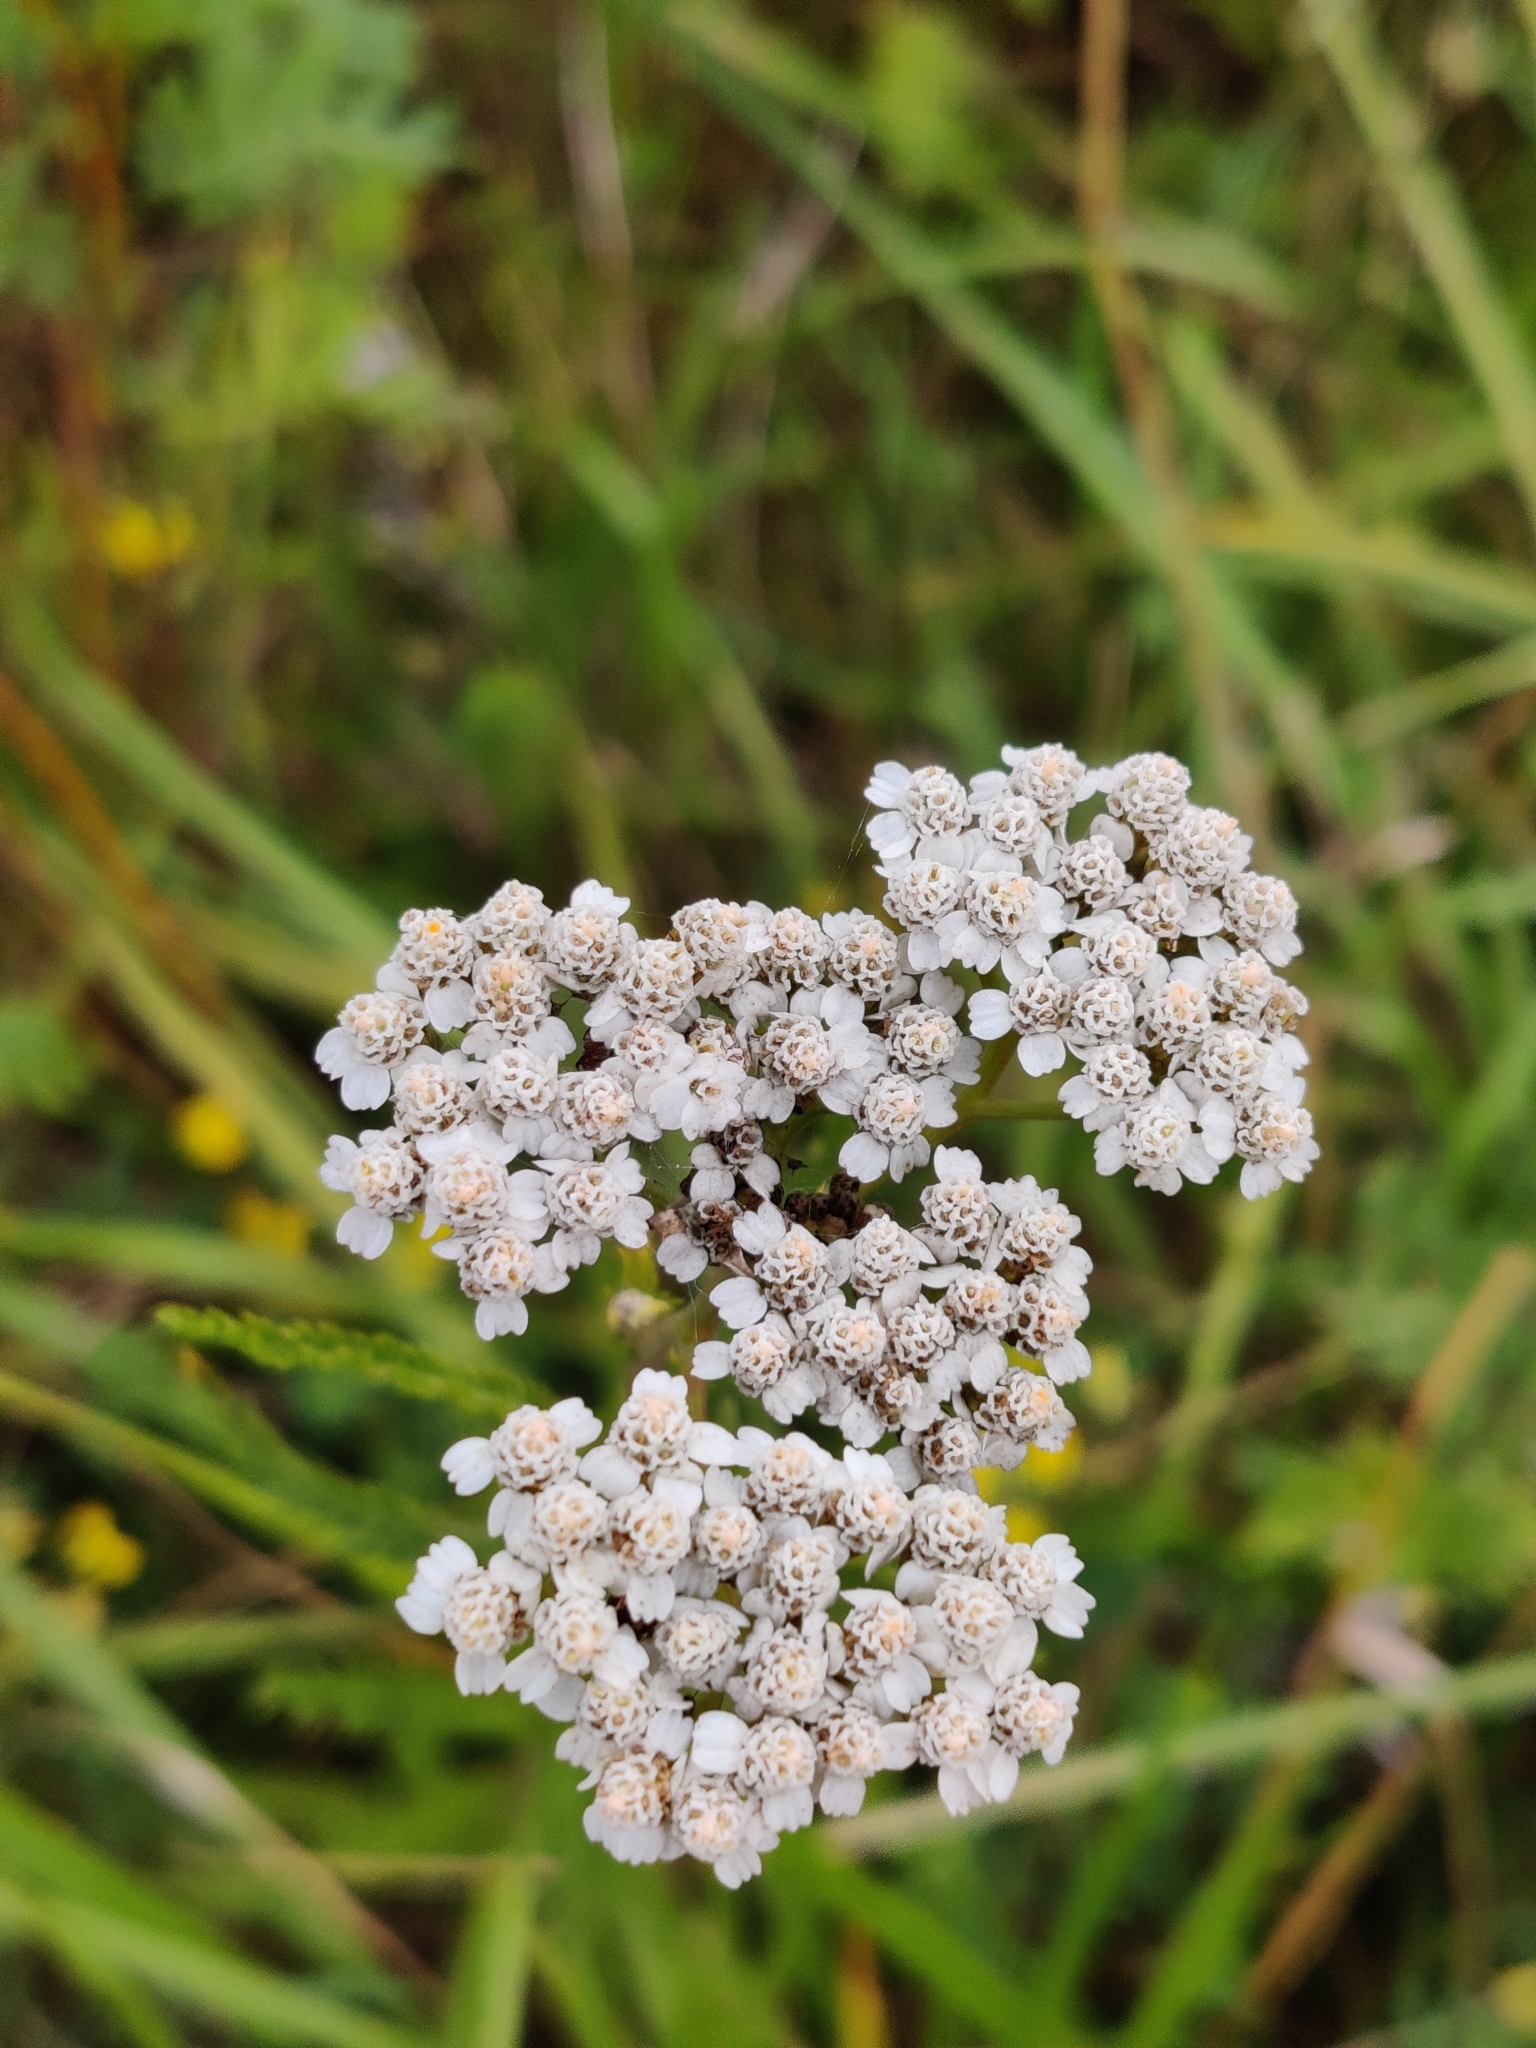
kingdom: Plantae
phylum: Tracheophyta
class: Magnoliopsida
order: Asterales
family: Asteraceae
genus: Achillea
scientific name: Achillea millefolium
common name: Yarrow
